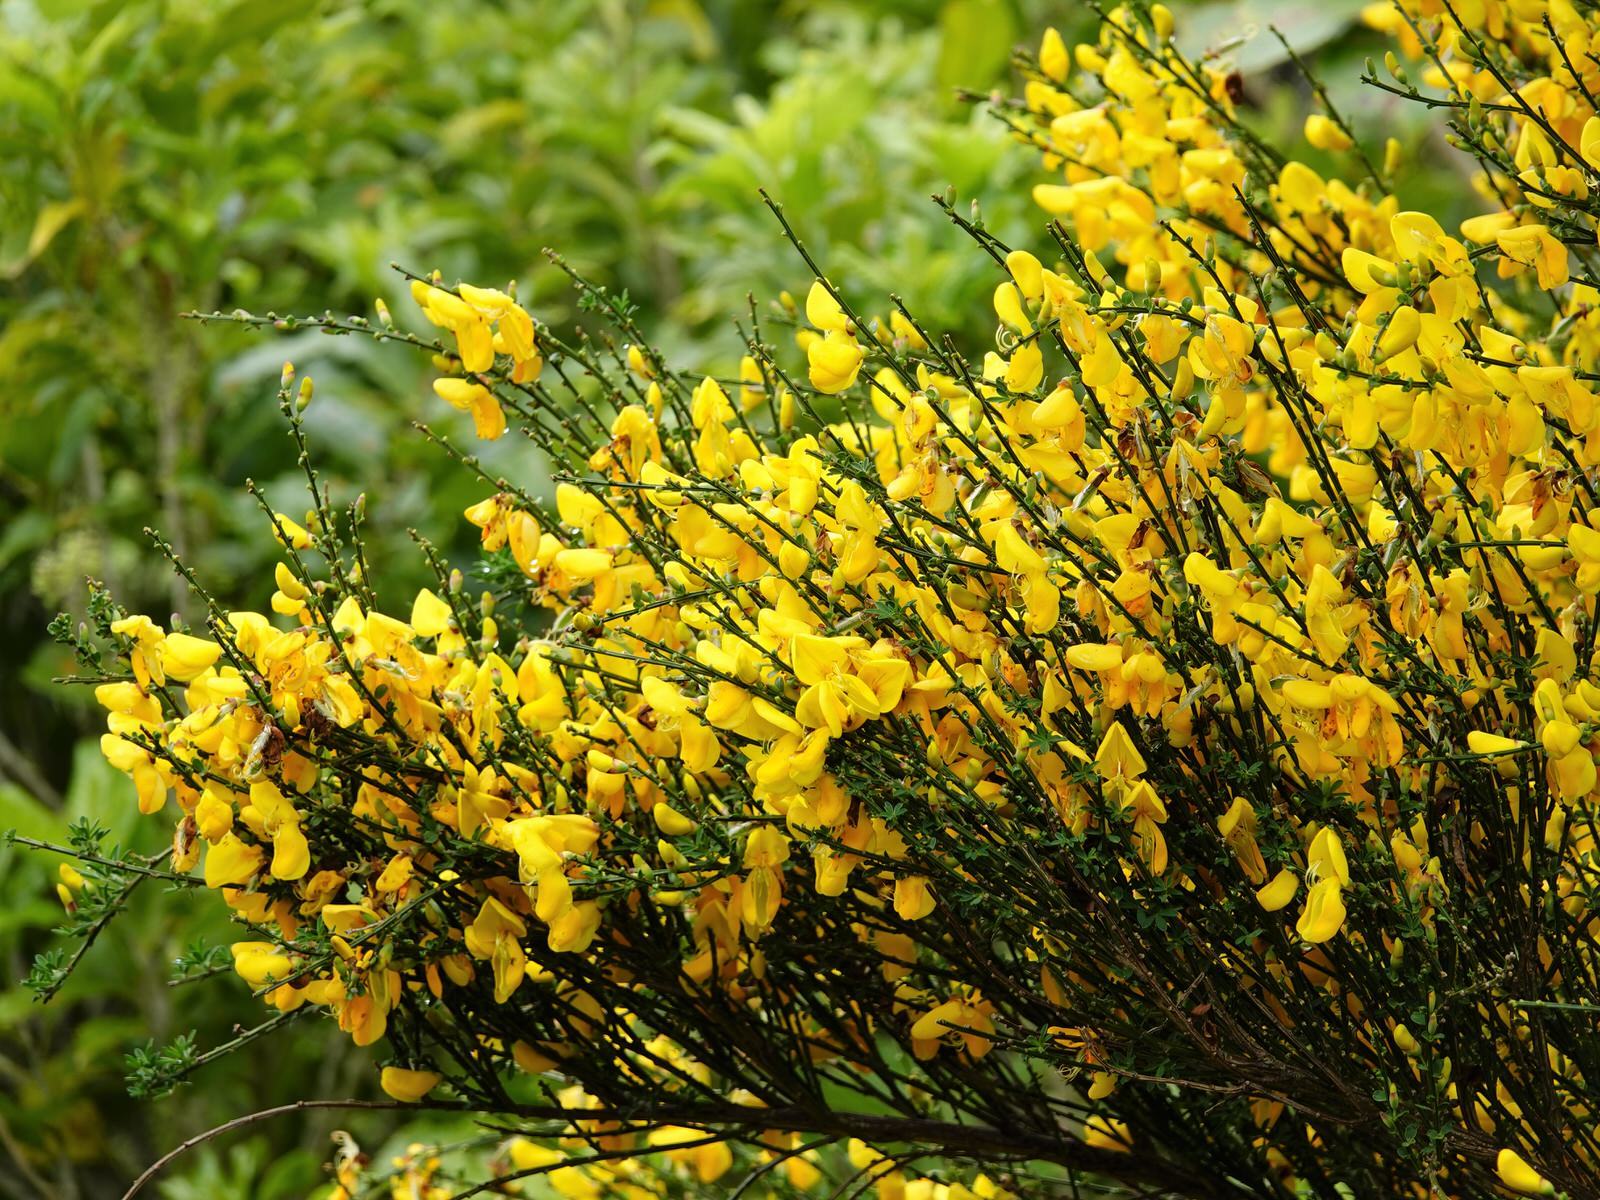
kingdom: Plantae
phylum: Tracheophyta
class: Magnoliopsida
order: Fabales
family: Fabaceae
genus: Cytisus
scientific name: Cytisus scoparius
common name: Scotch broom
